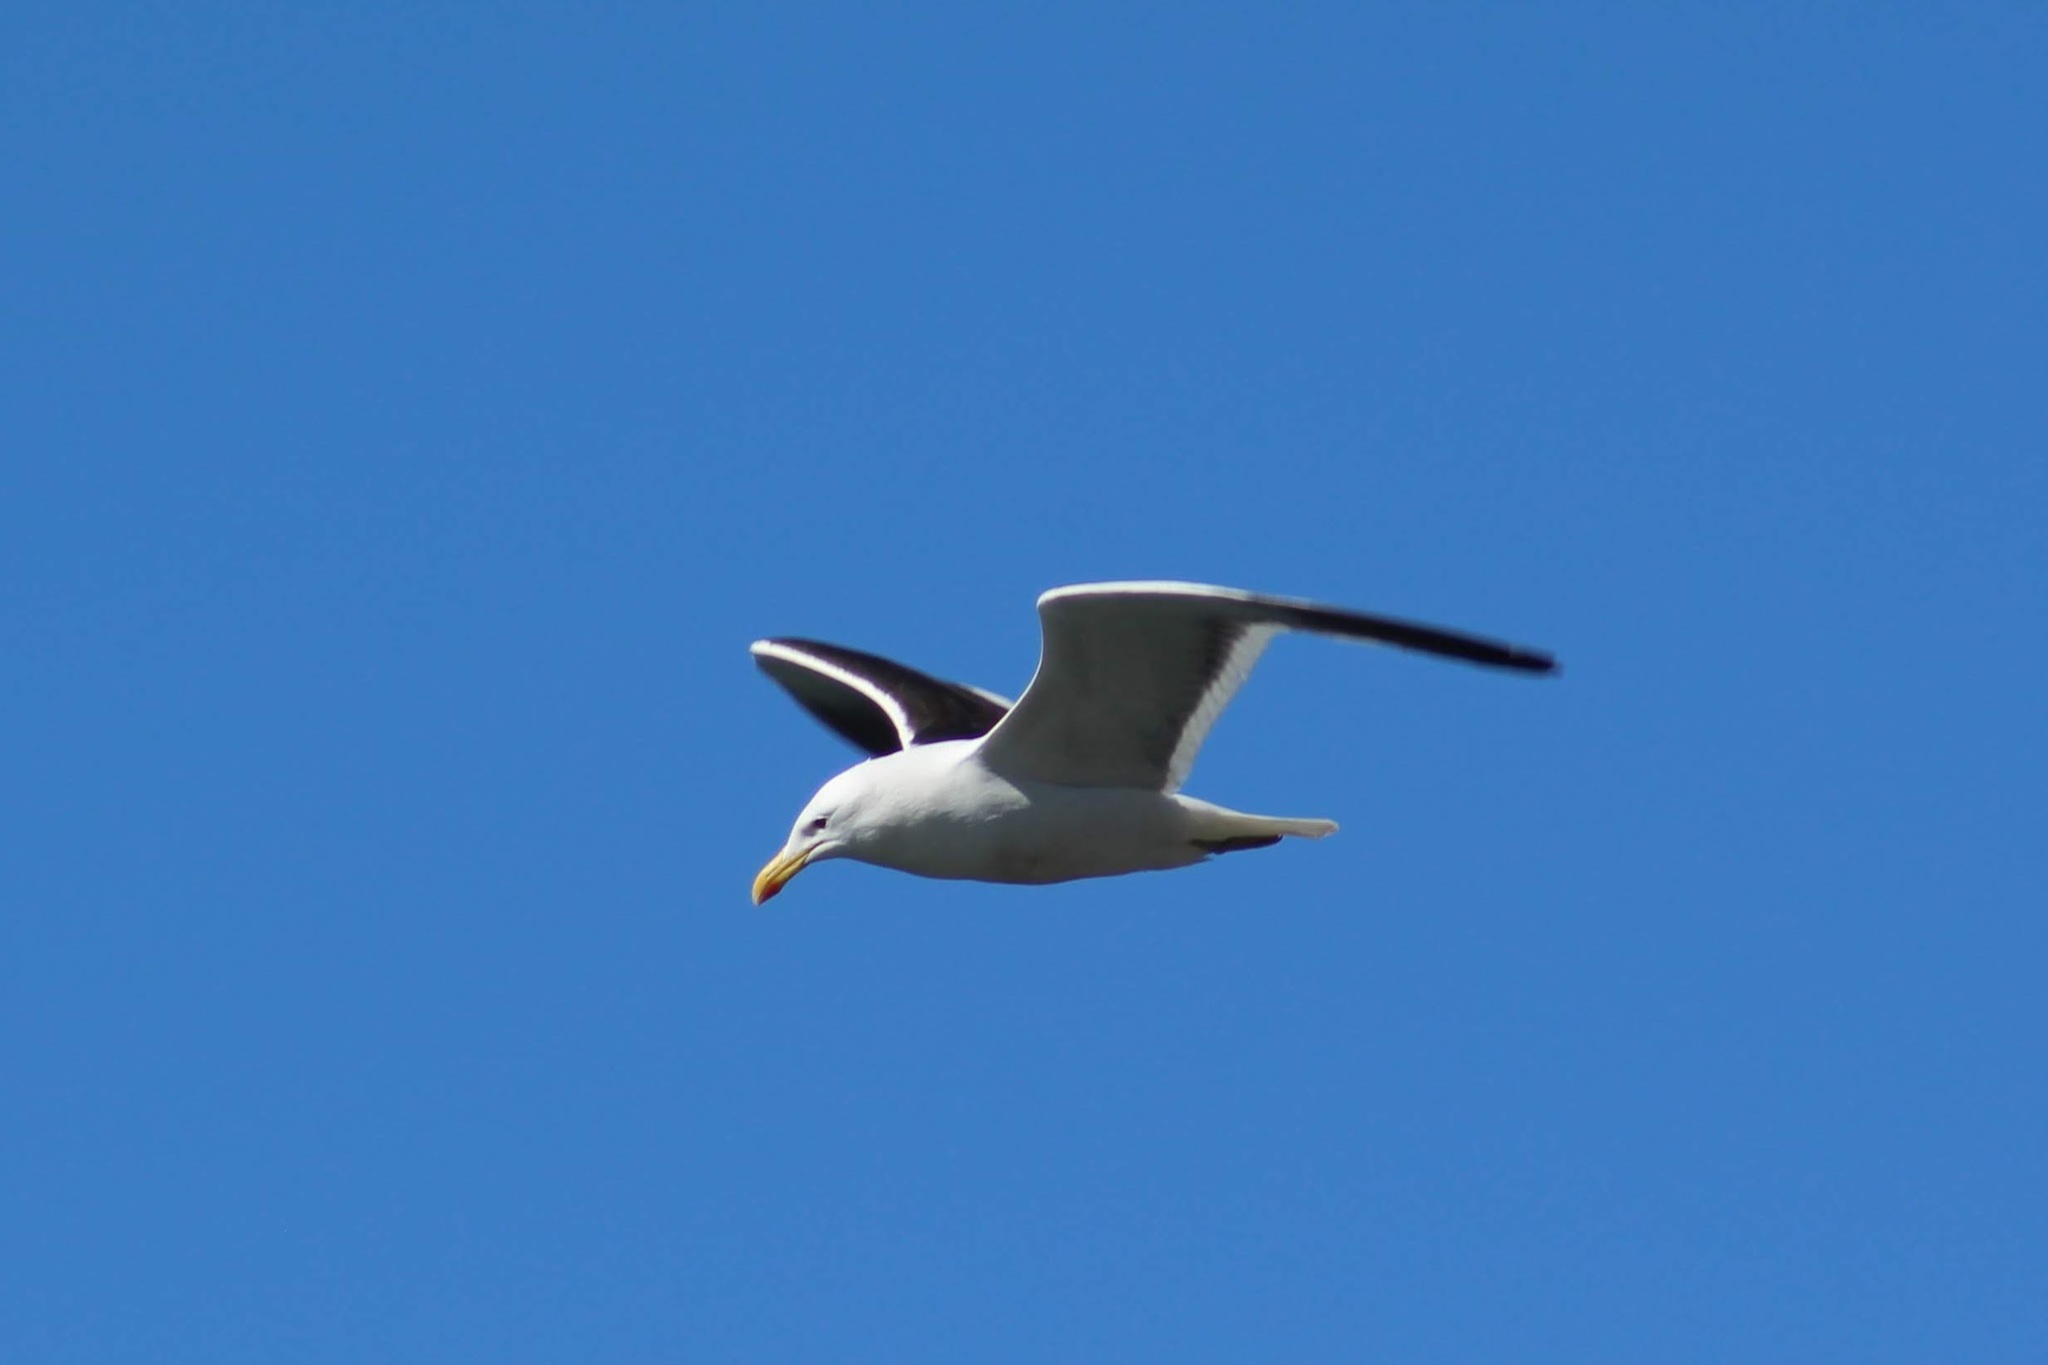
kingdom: Animalia
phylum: Chordata
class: Aves
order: Charadriiformes
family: Laridae
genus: Larus
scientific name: Larus dominicanus
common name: Kelp gull
